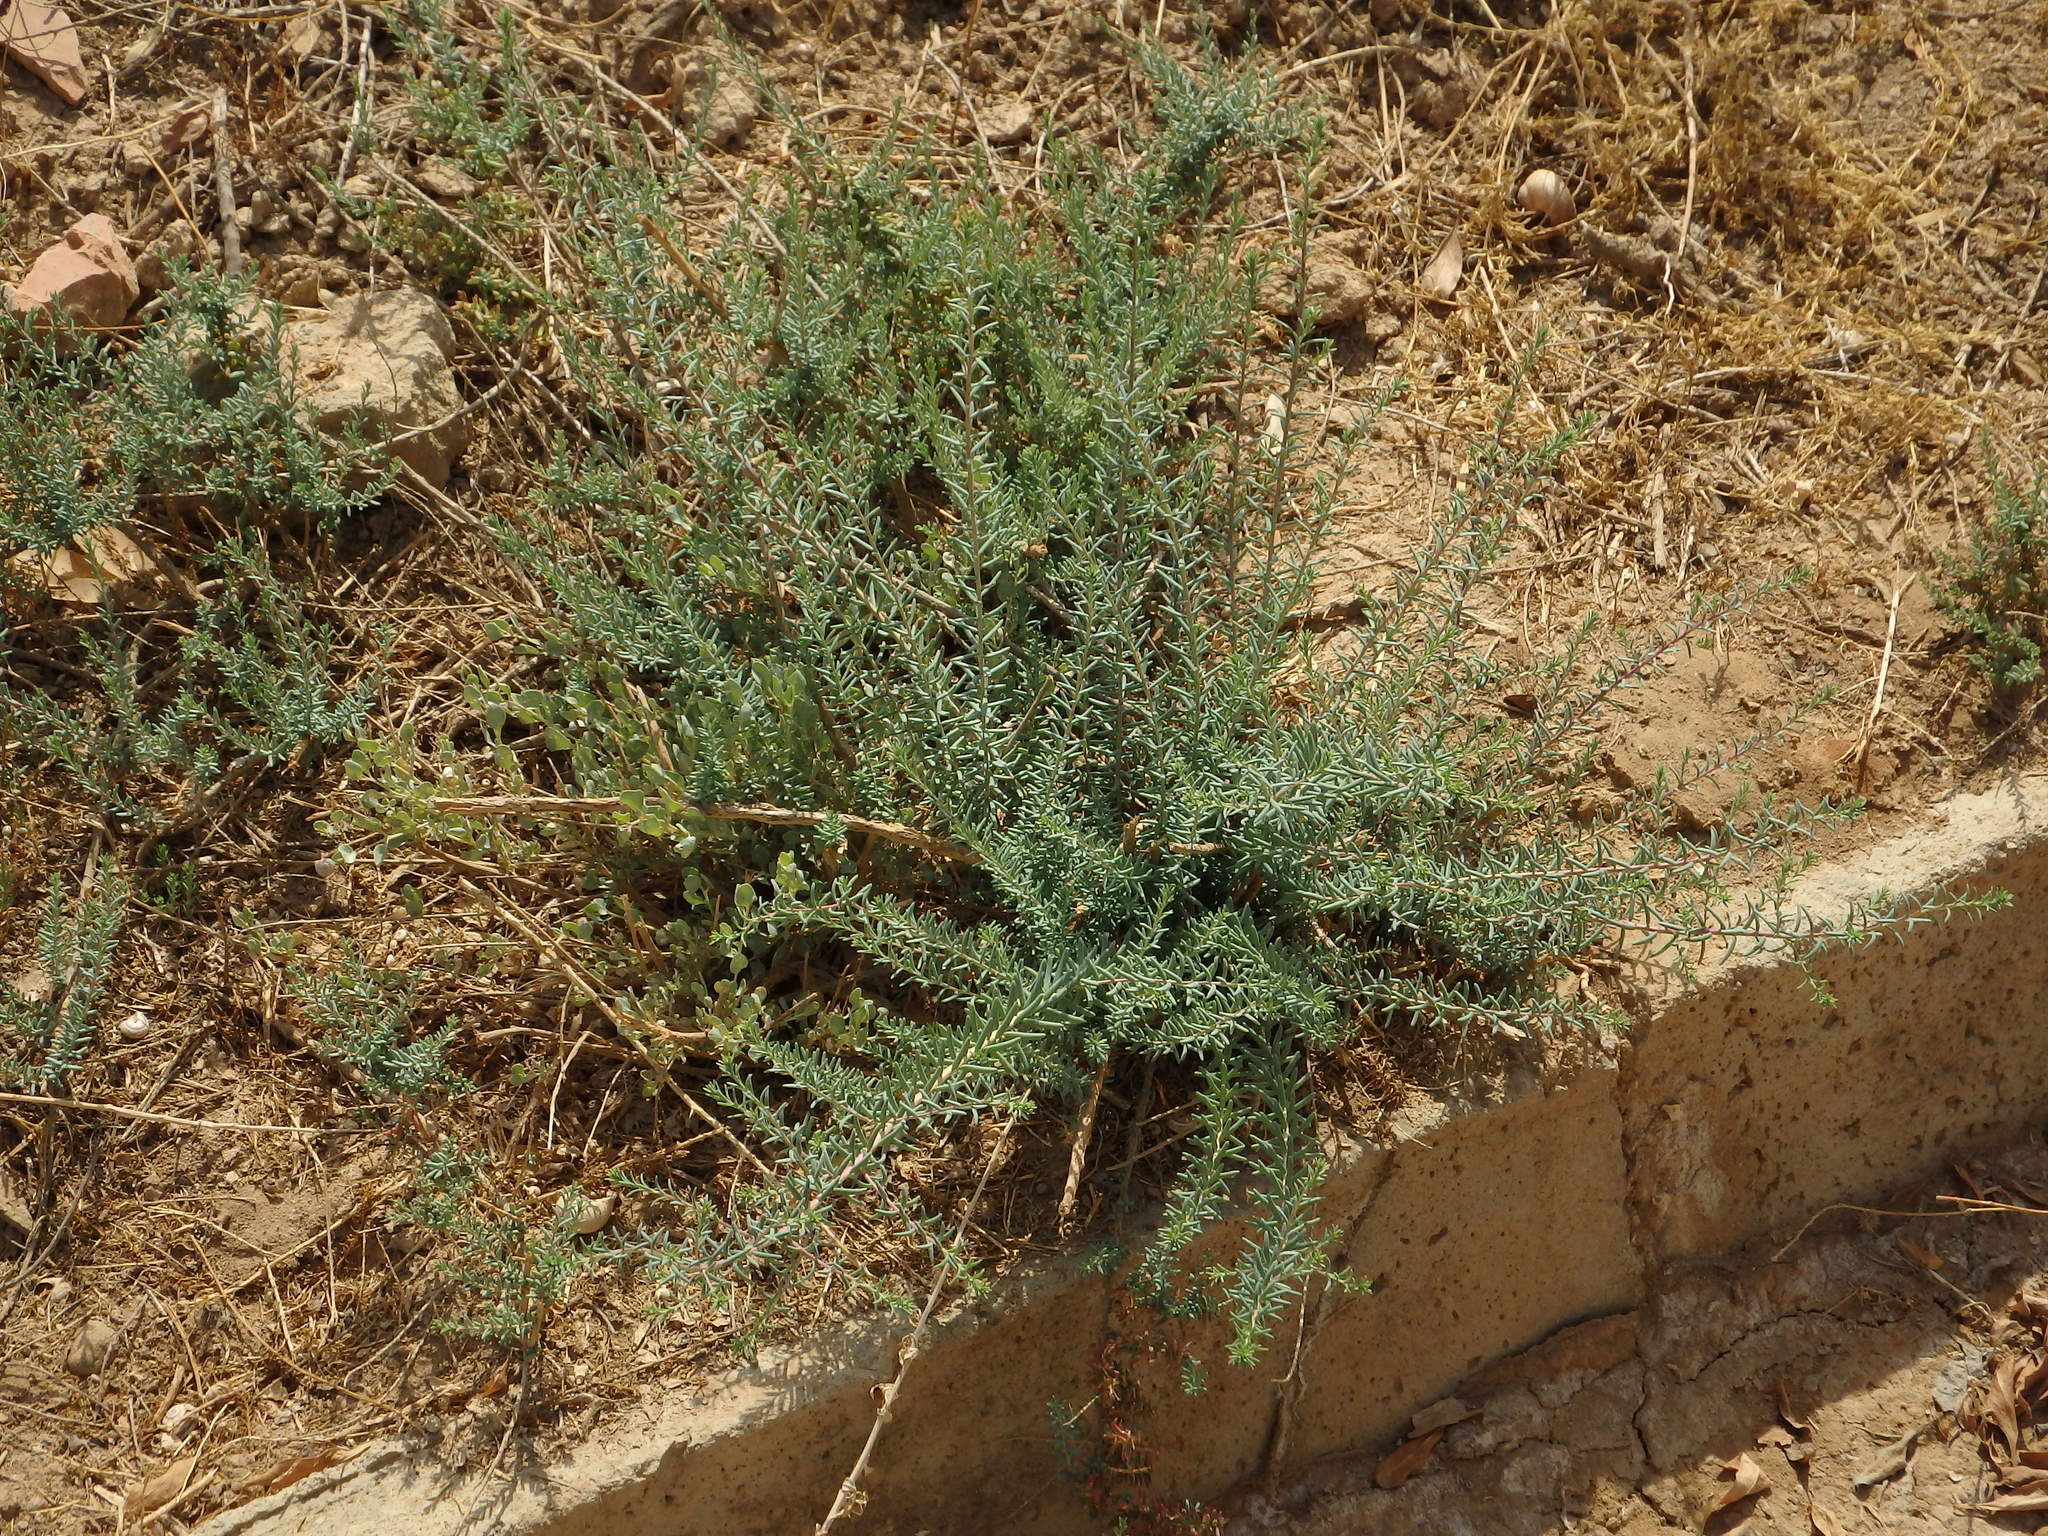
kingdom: Plantae
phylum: Tracheophyta
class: Magnoliopsida
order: Caryophyllales
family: Amaranthaceae
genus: Atriplex
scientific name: Atriplex halimus
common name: Shrubby orache
